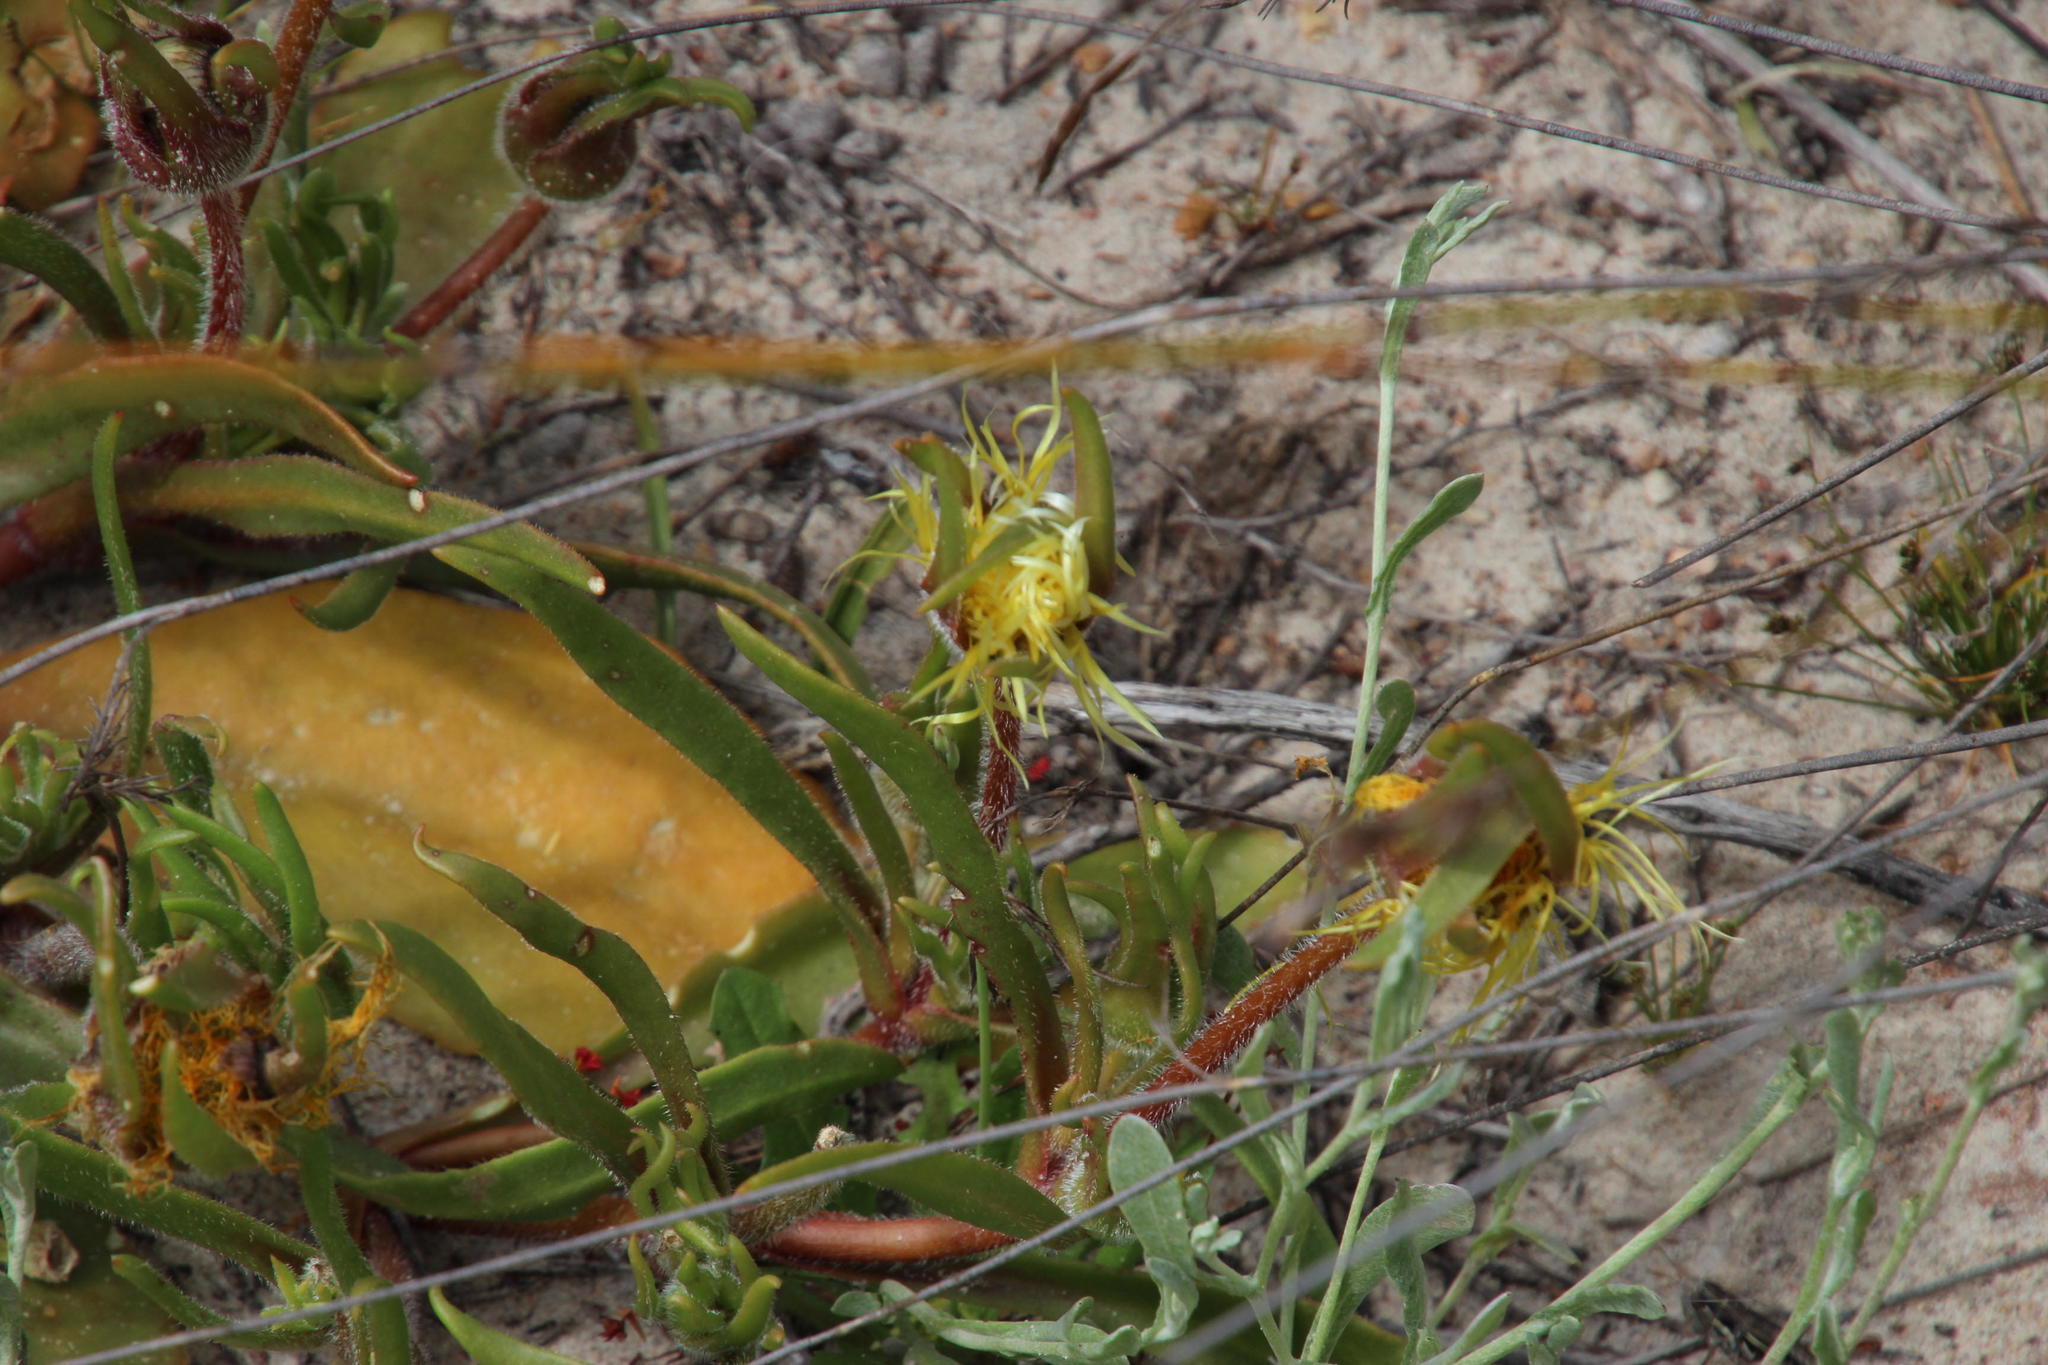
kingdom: Plantae
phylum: Tracheophyta
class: Magnoliopsida
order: Caryophyllales
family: Aizoaceae
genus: Carpanthea
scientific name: Carpanthea pomeridiana
